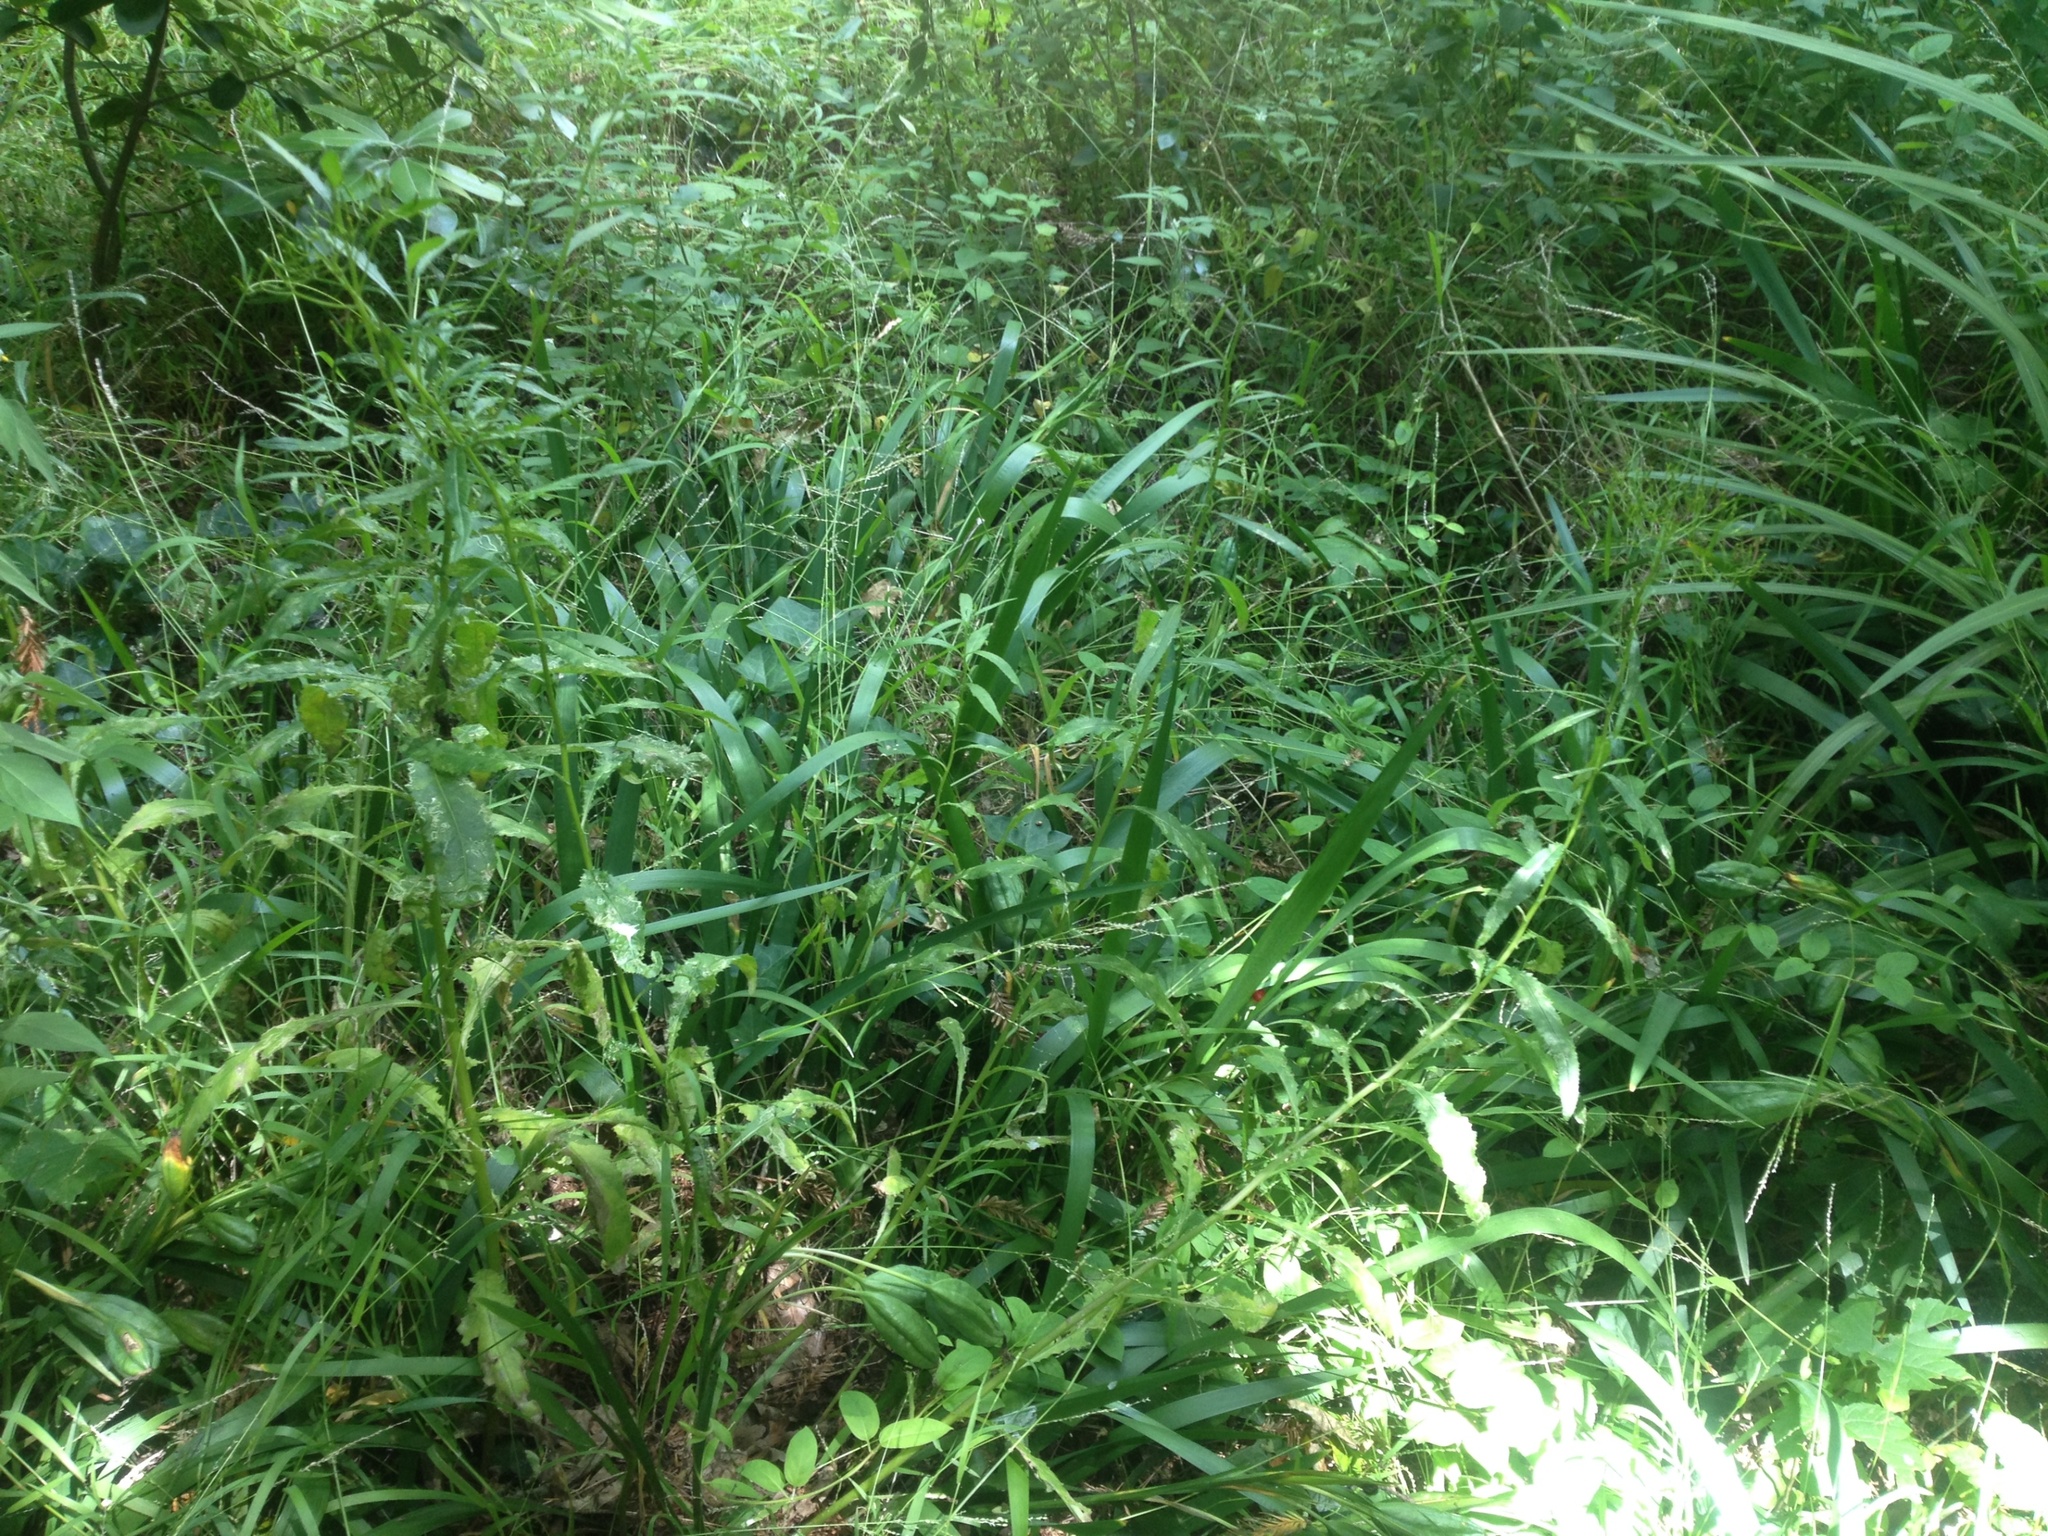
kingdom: Plantae
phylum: Tracheophyta
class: Magnoliopsida
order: Asterales
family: Asteraceae
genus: Senecio
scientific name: Senecio minimus
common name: Toothed fireweed
